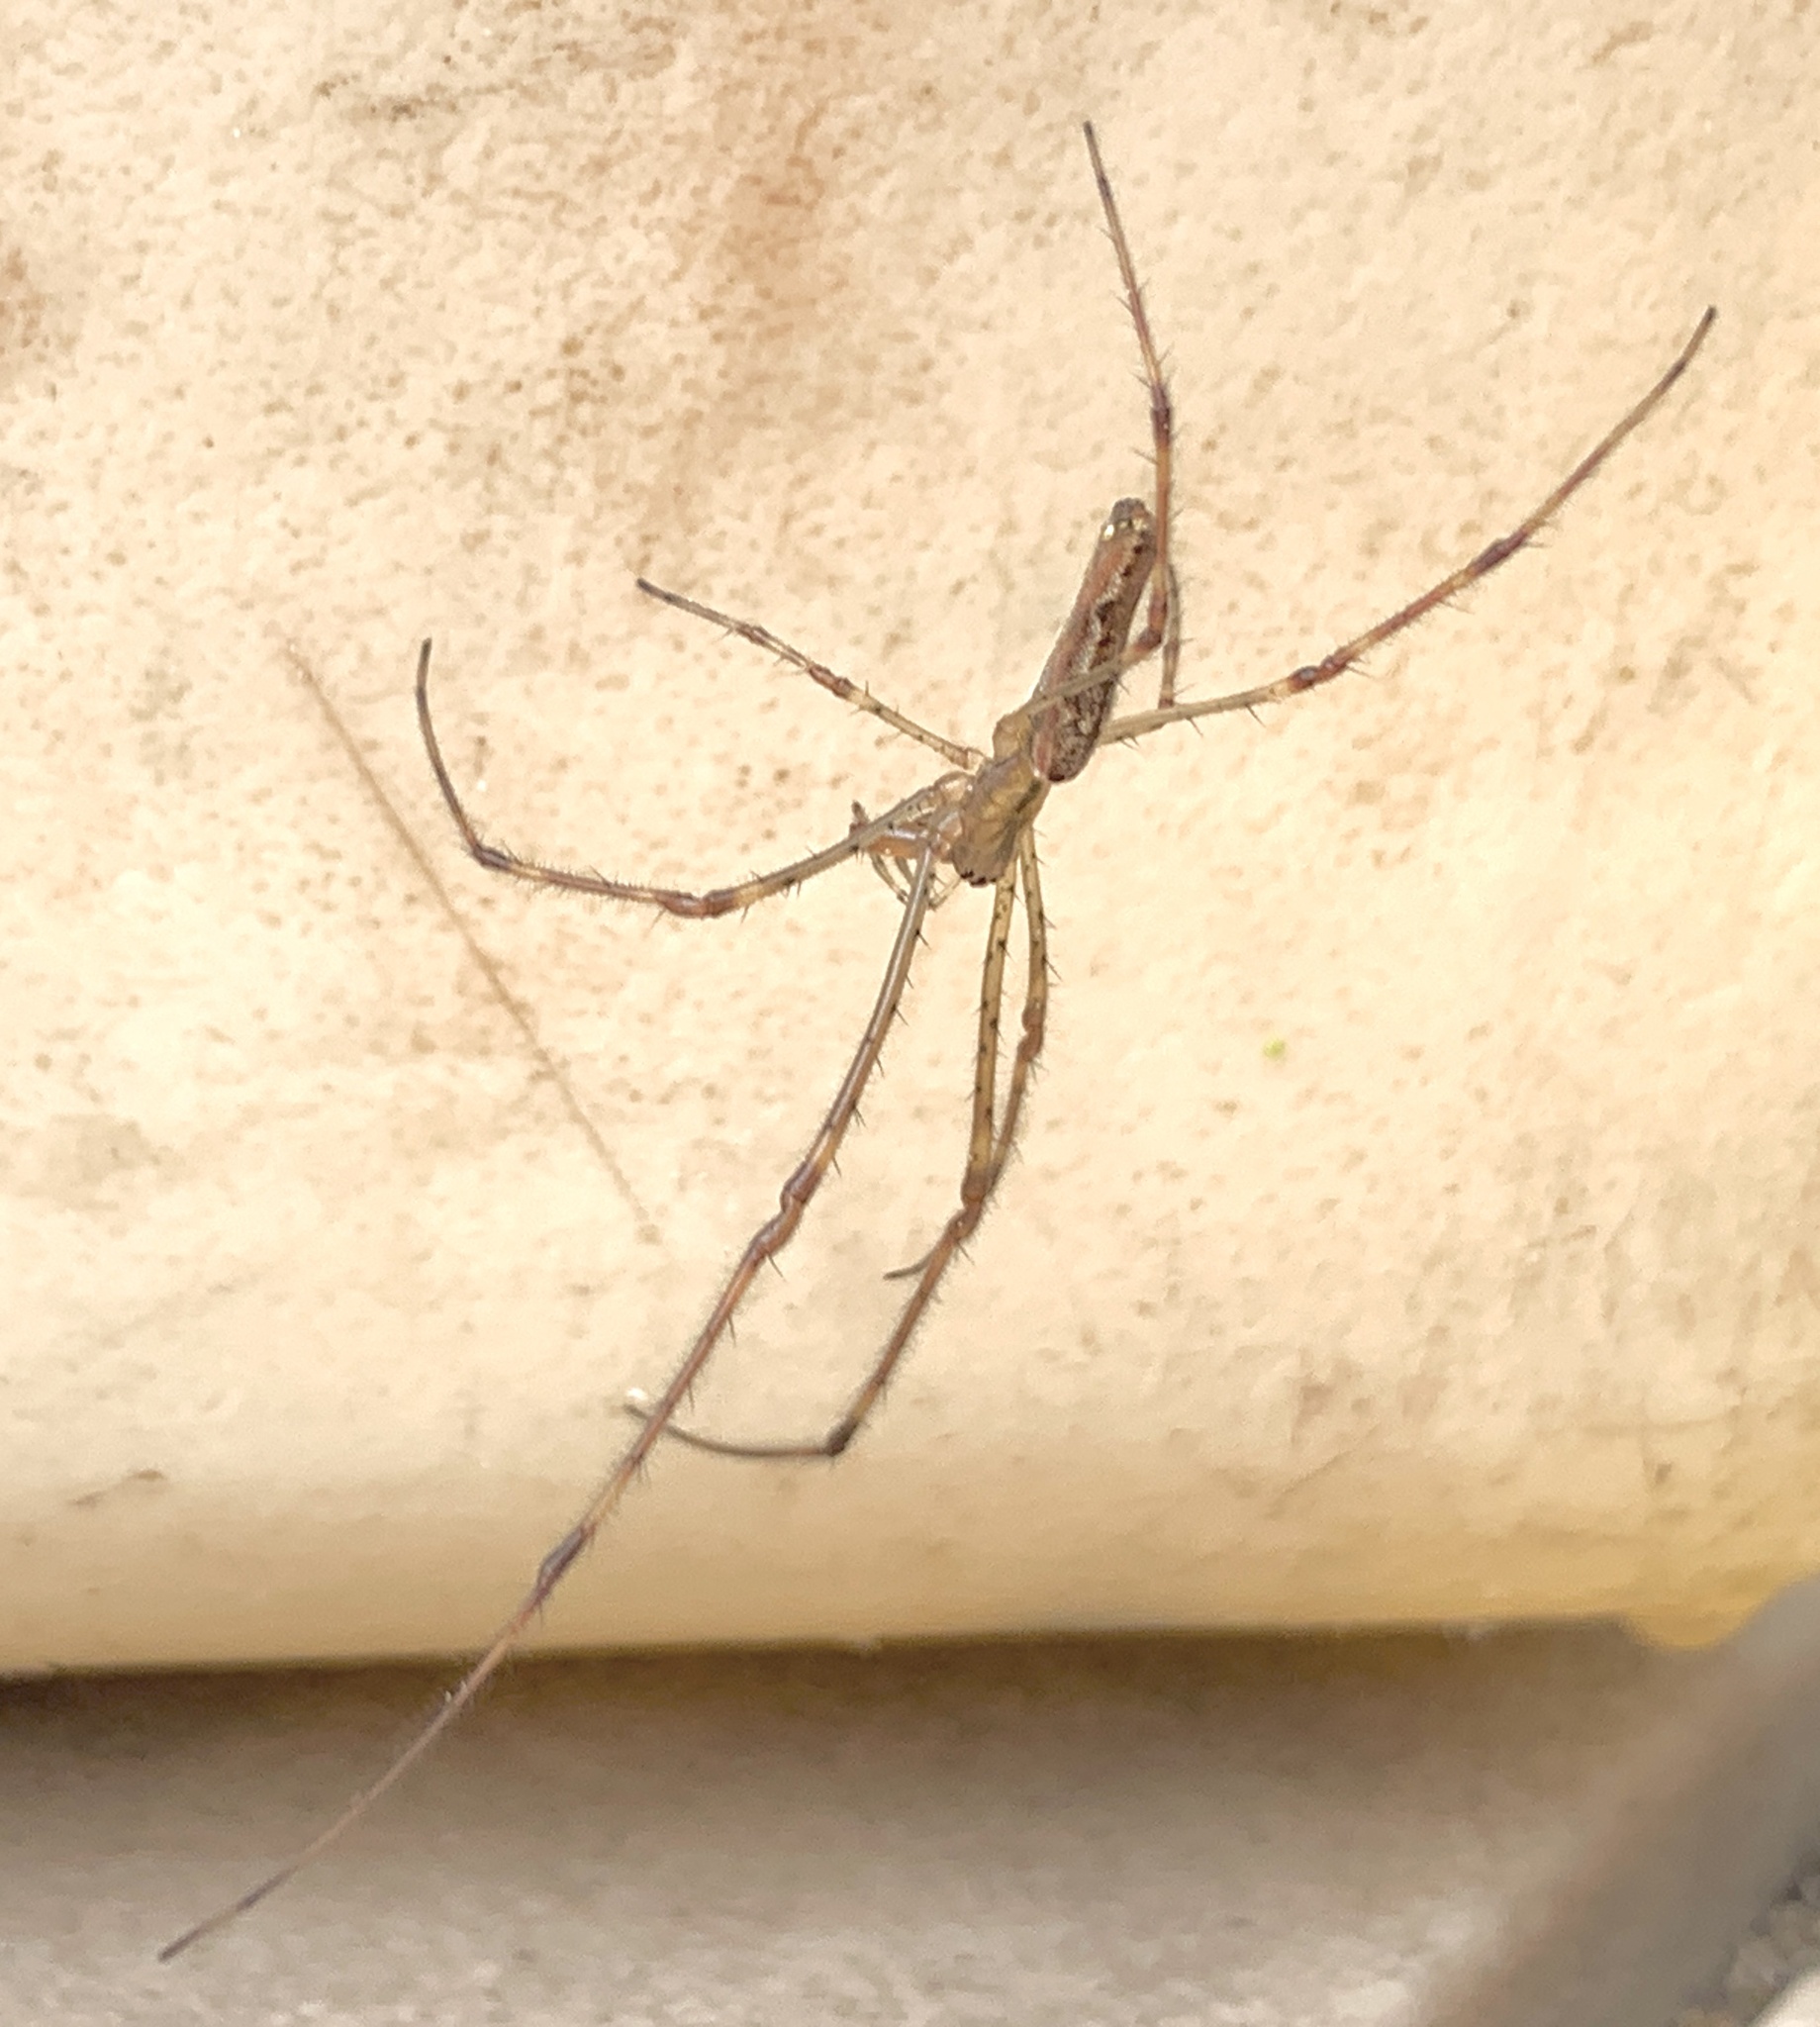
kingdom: Animalia
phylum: Arthropoda
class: Arachnida
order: Araneae
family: Tetragnathidae
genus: Tetragnatha
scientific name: Tetragnatha laboriosa
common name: Longjawed orb weavers
